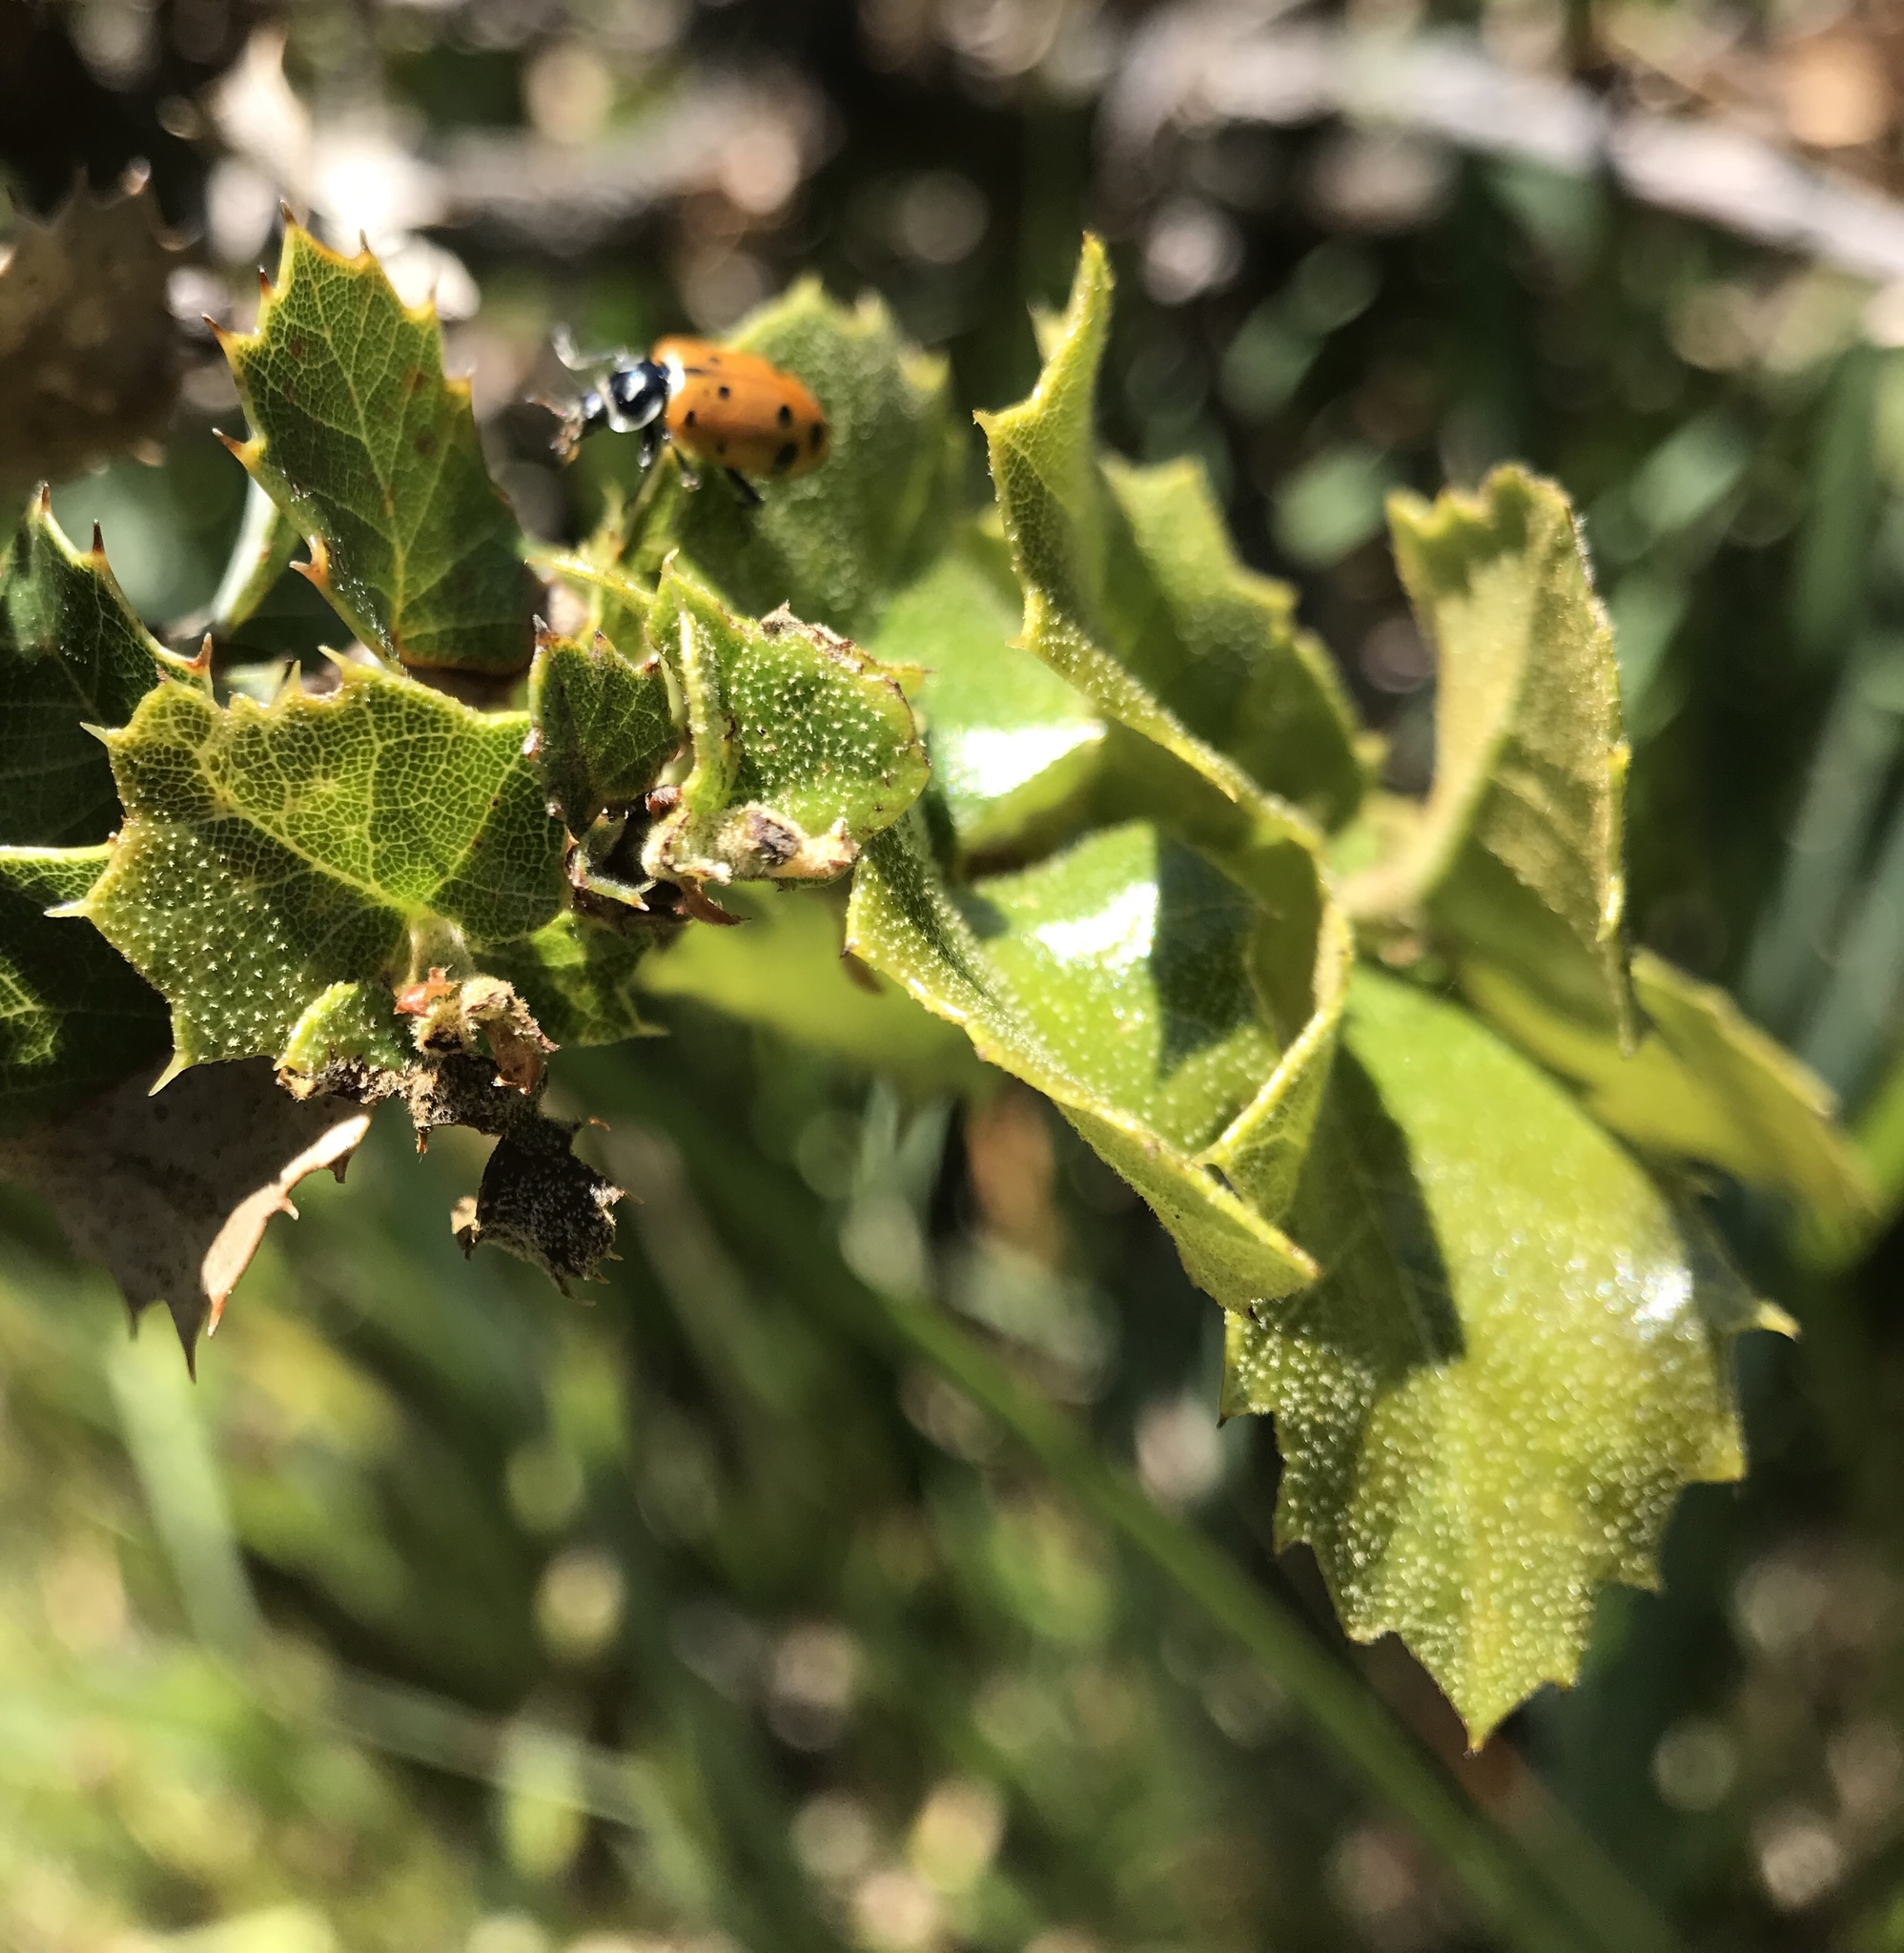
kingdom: Animalia
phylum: Arthropoda
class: Insecta
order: Coleoptera
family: Coccinellidae
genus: Hippodamia
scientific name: Hippodamia convergens
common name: Convergent lady beetle
